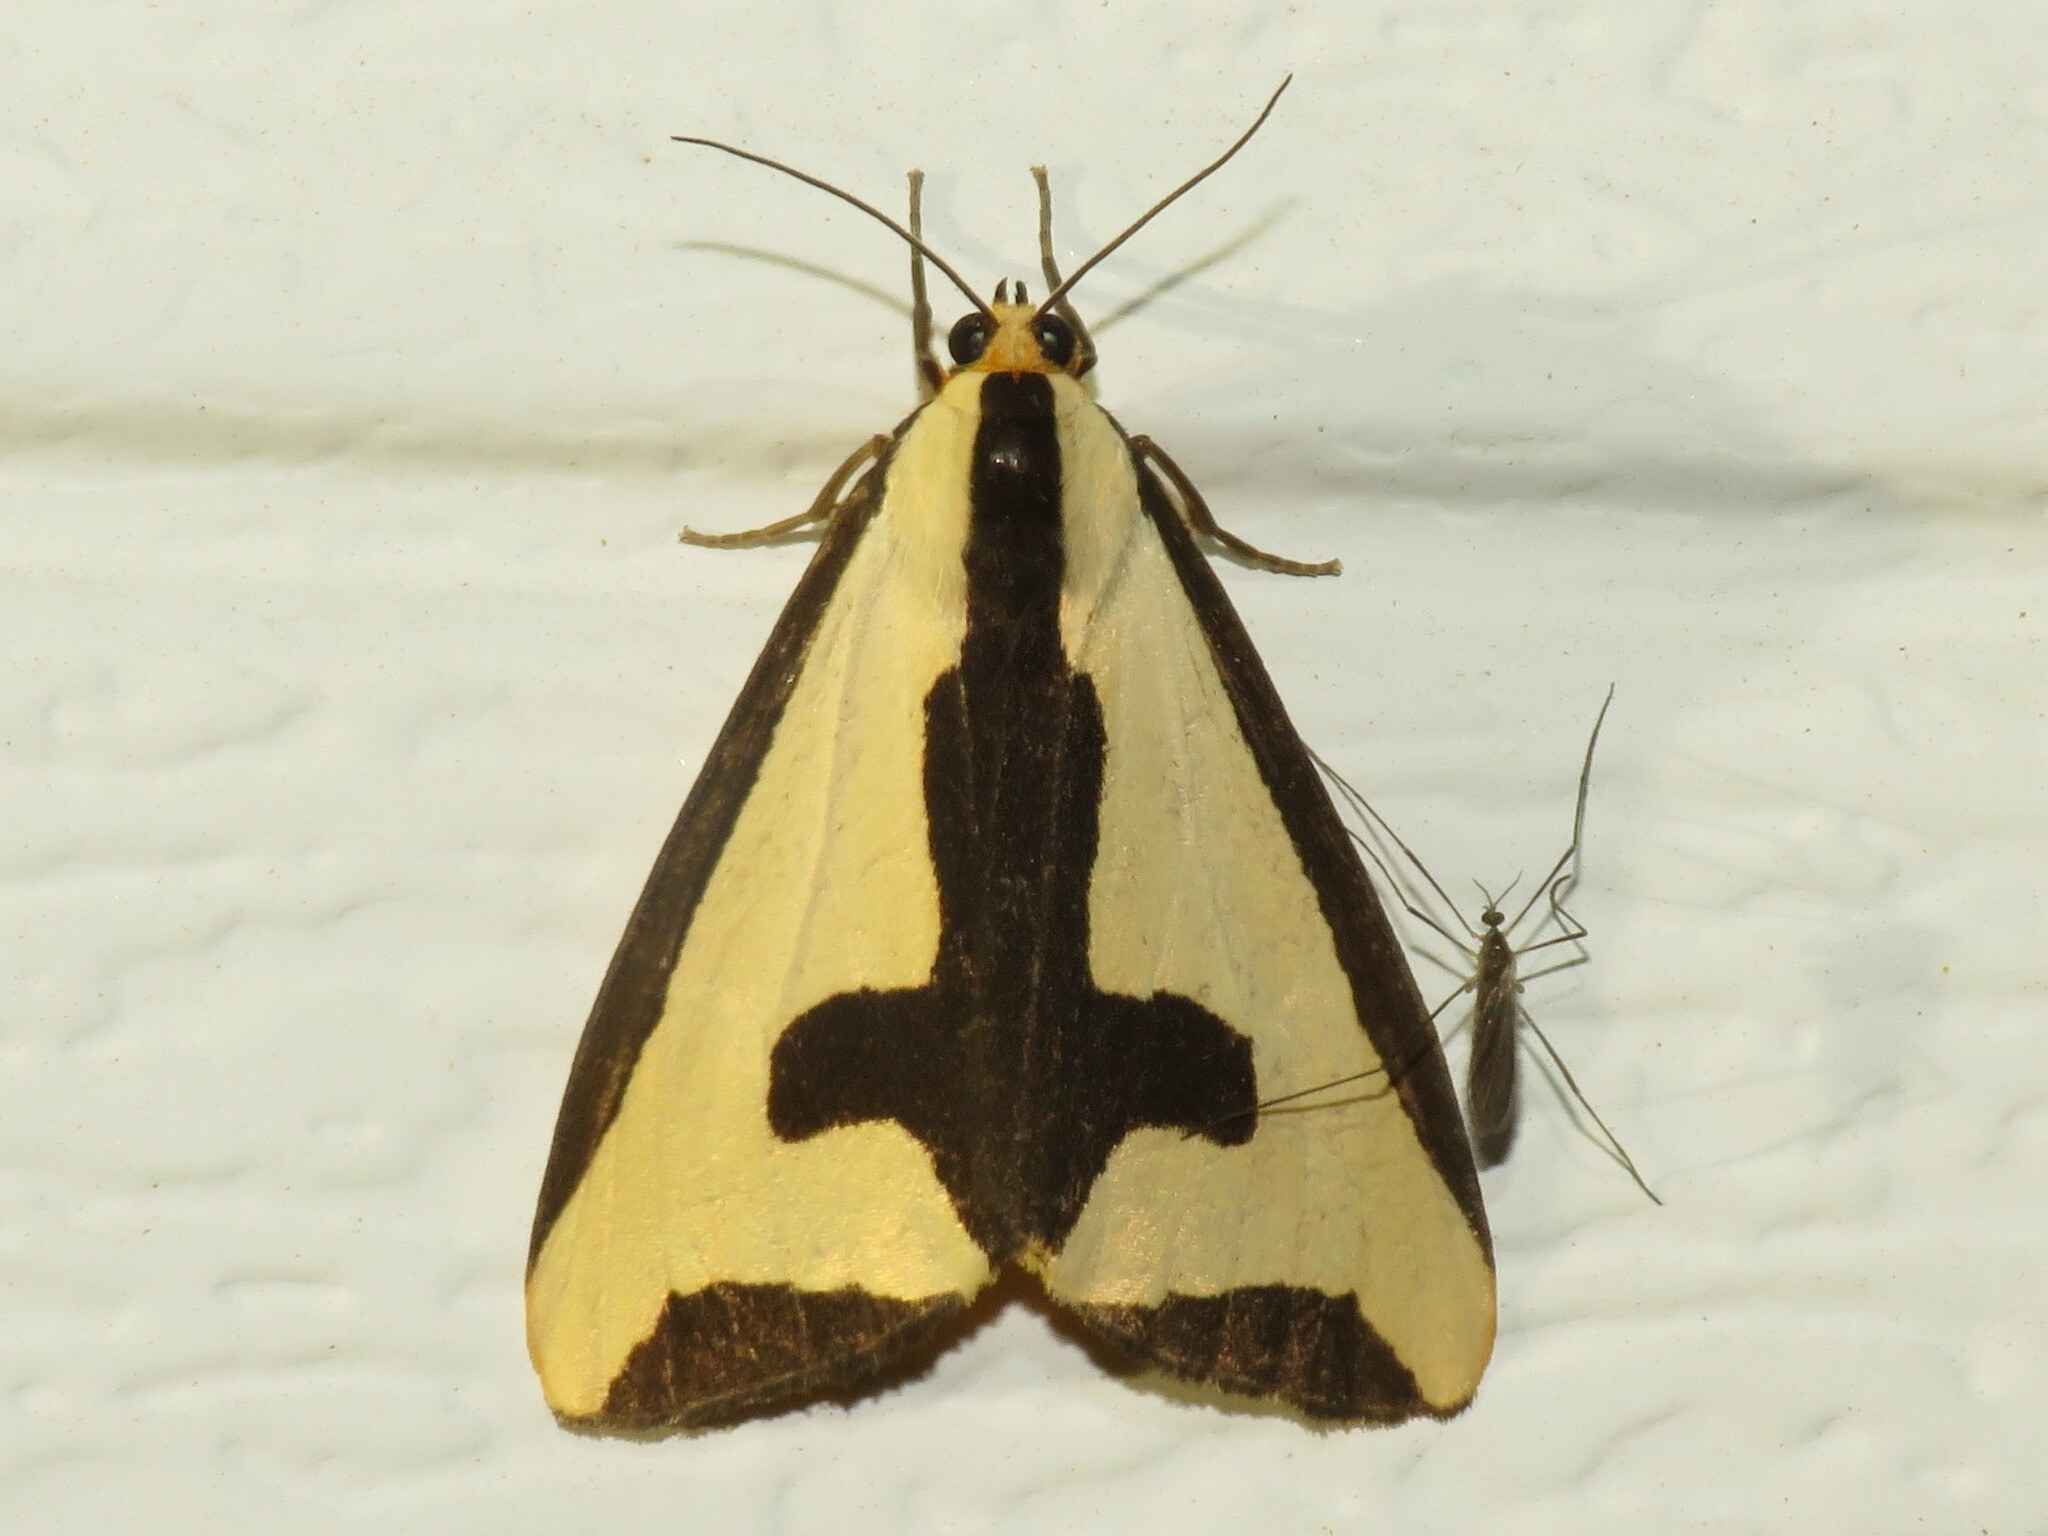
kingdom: Animalia
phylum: Arthropoda
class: Insecta
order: Lepidoptera
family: Erebidae
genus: Haploa
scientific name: Haploa clymene
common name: Clymene moth
